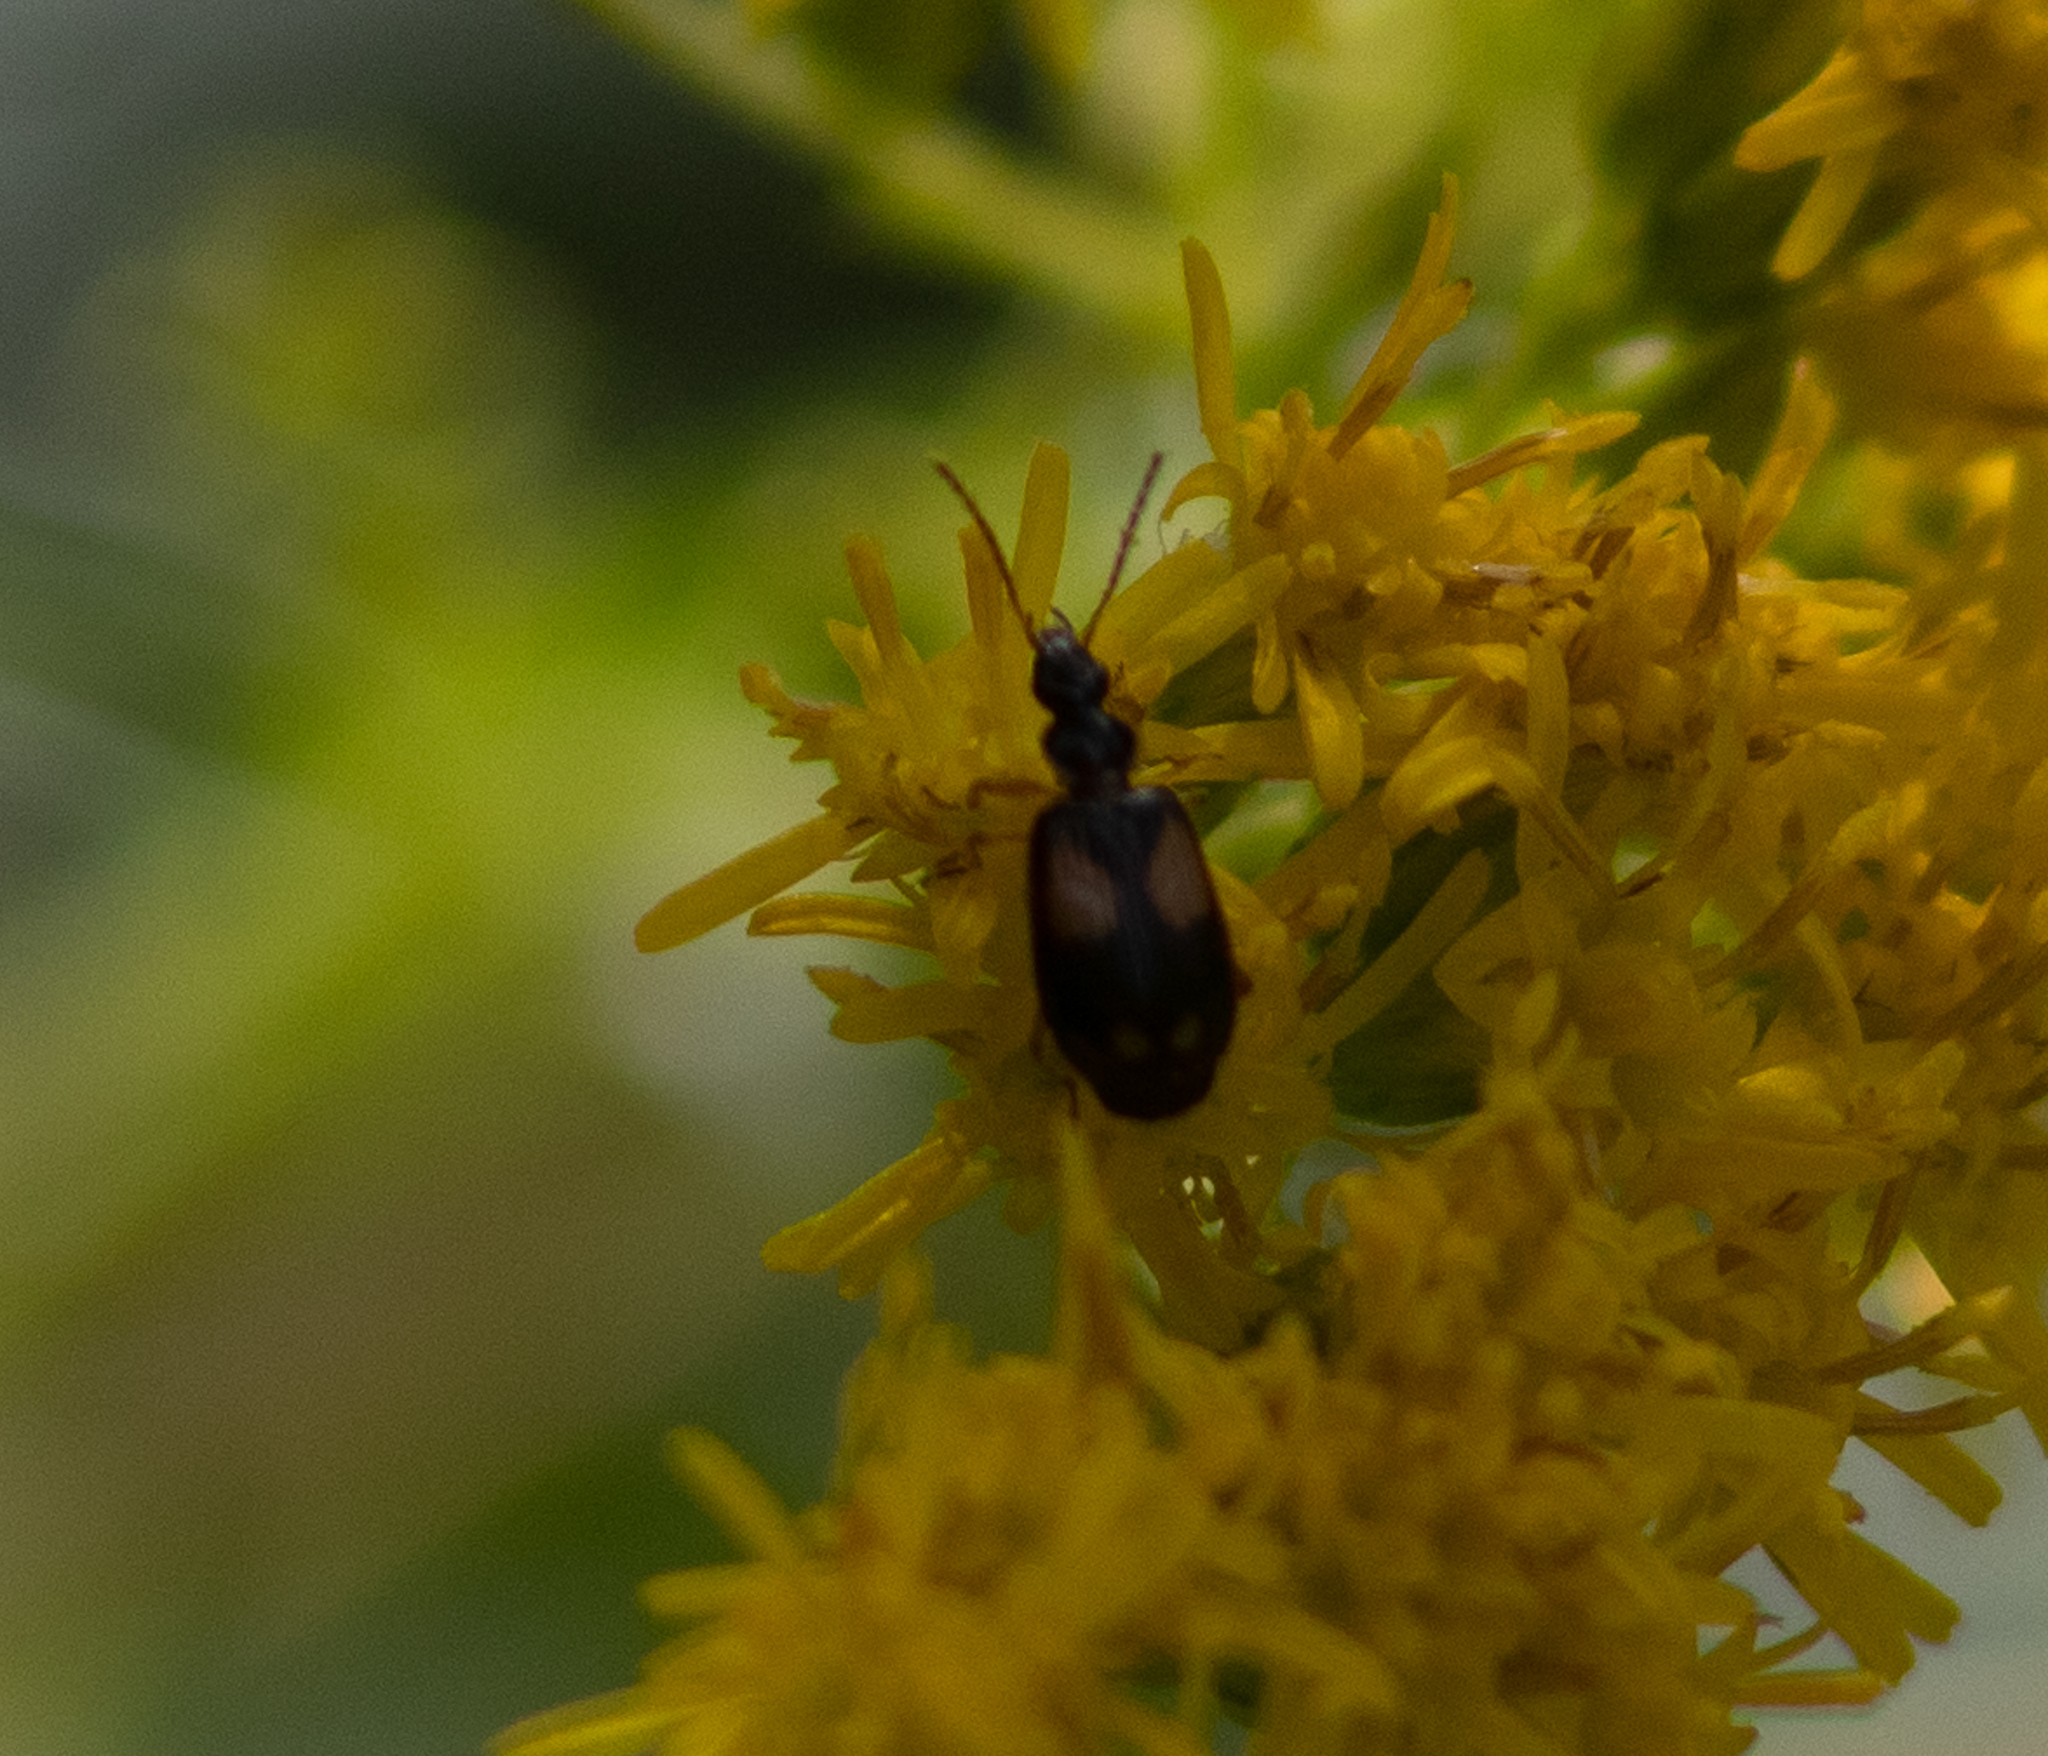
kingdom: Animalia
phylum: Arthropoda
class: Insecta
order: Coleoptera
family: Carabidae
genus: Lebia
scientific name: Lebia ornata
